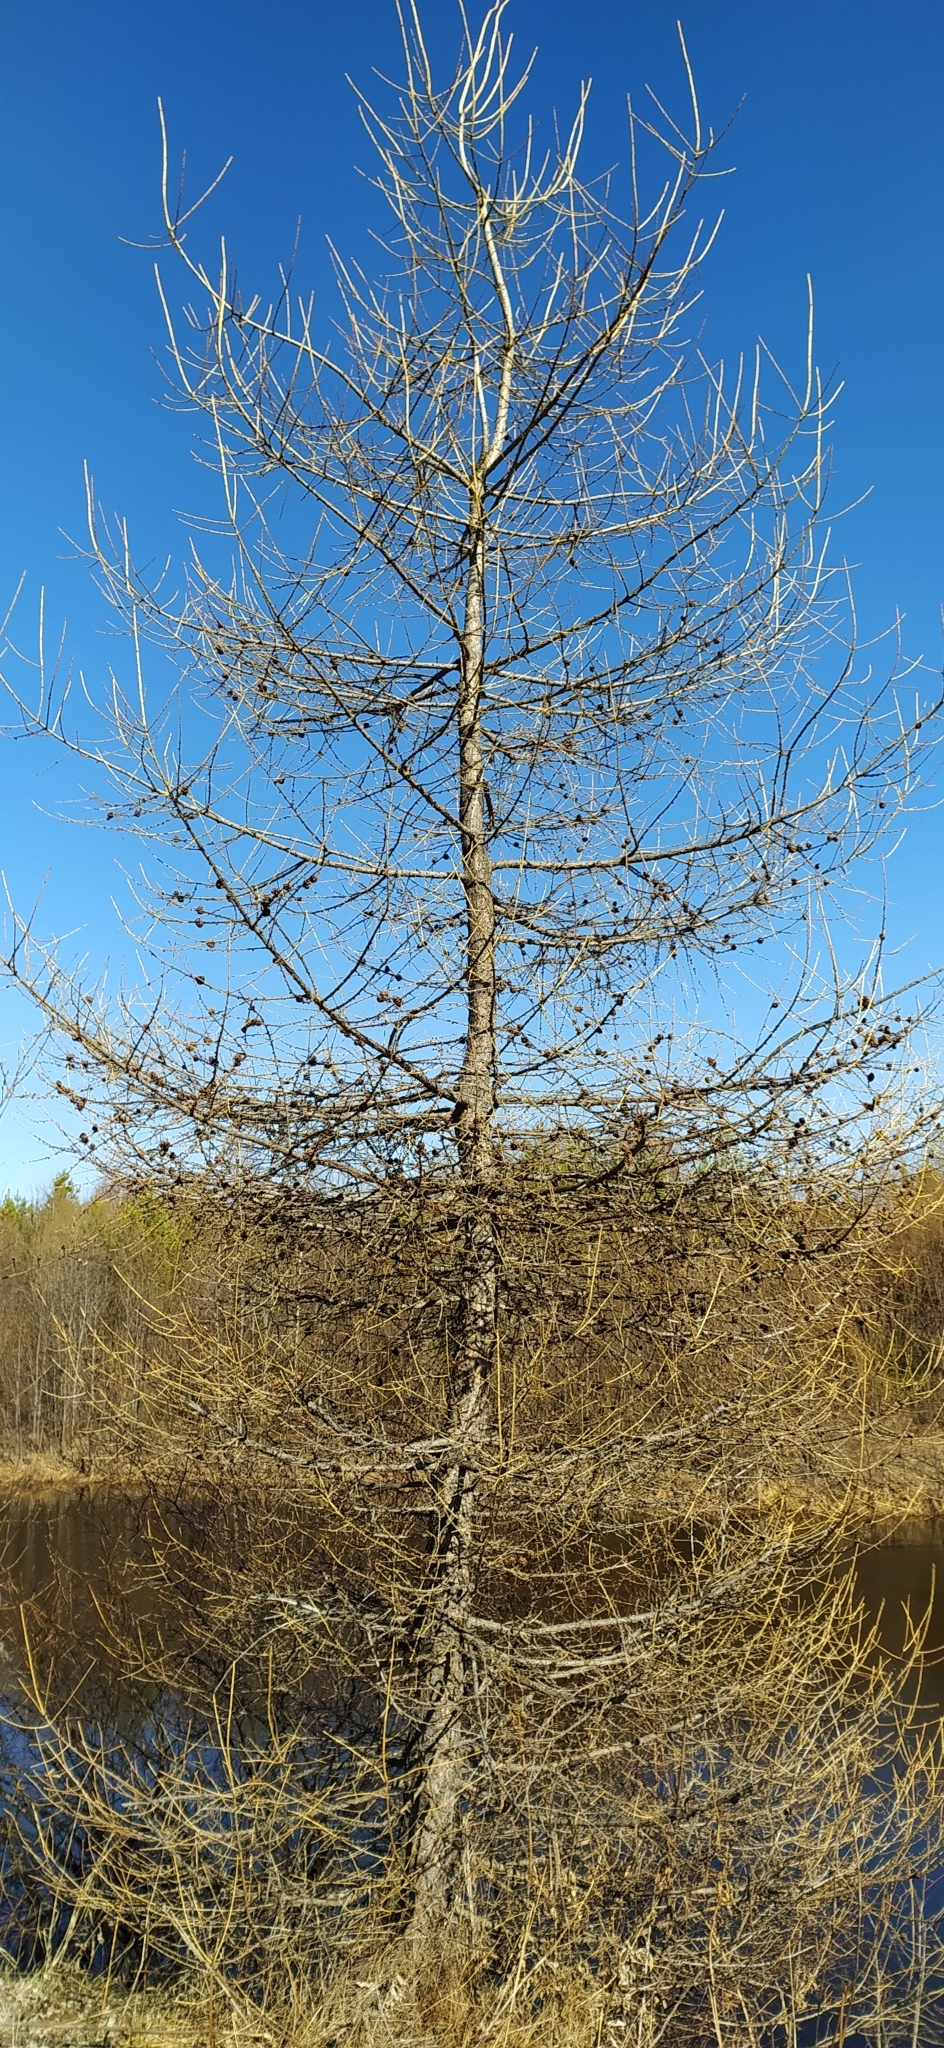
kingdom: Plantae
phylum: Tracheophyta
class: Pinopsida
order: Pinales
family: Pinaceae
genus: Larix
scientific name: Larix sibirica
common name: Siberian larch
